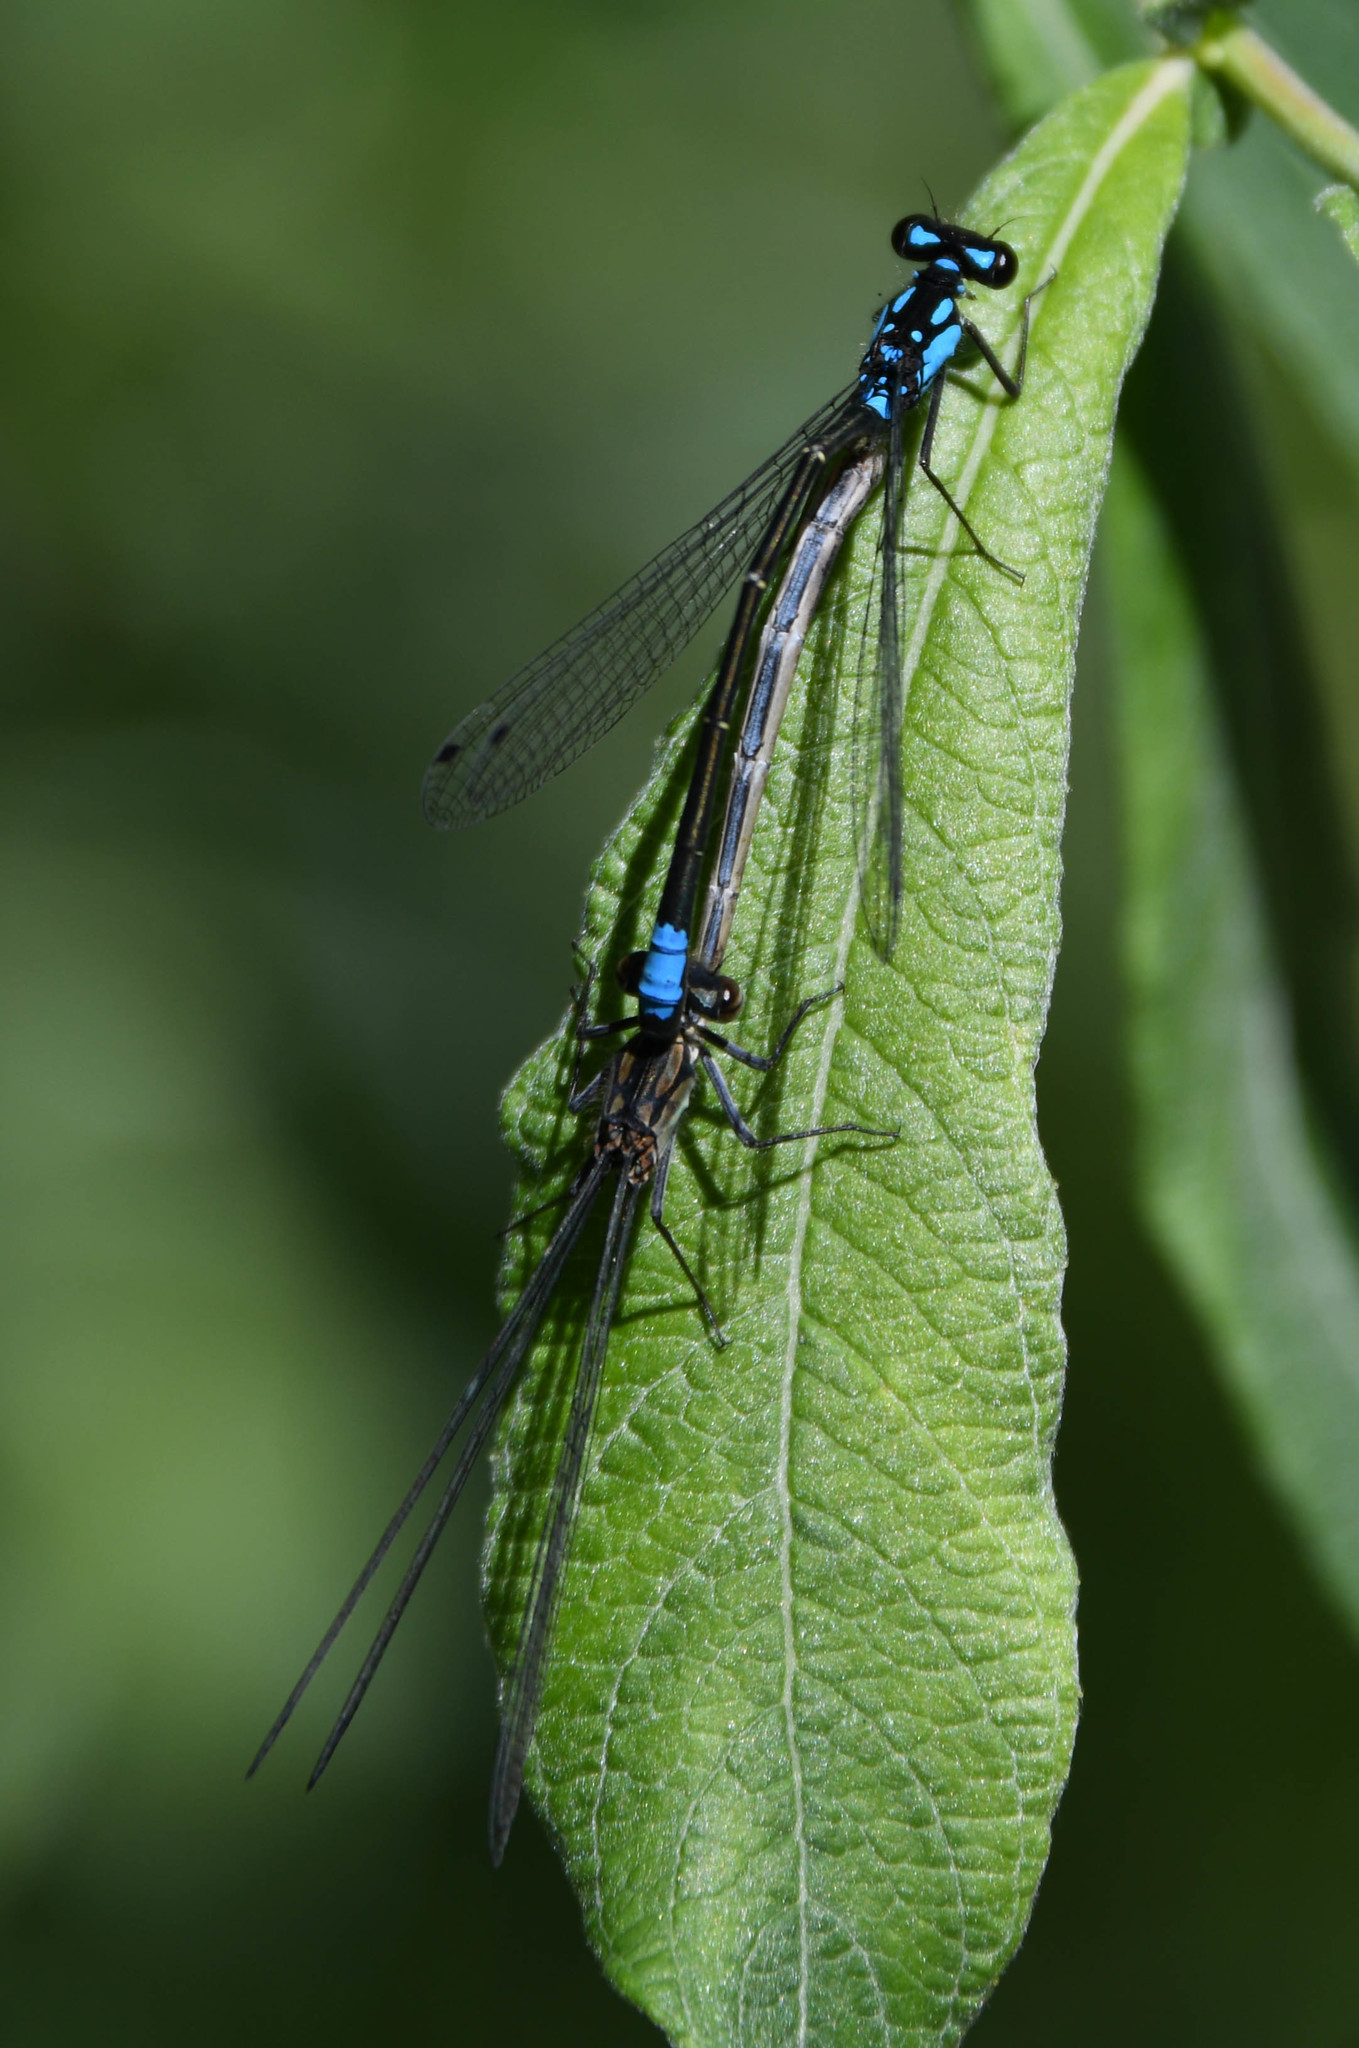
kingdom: Animalia
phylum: Arthropoda
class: Insecta
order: Odonata
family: Coenagrionidae
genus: Zoniagrion
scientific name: Zoniagrion exclamationis
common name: Exclamation damsel
